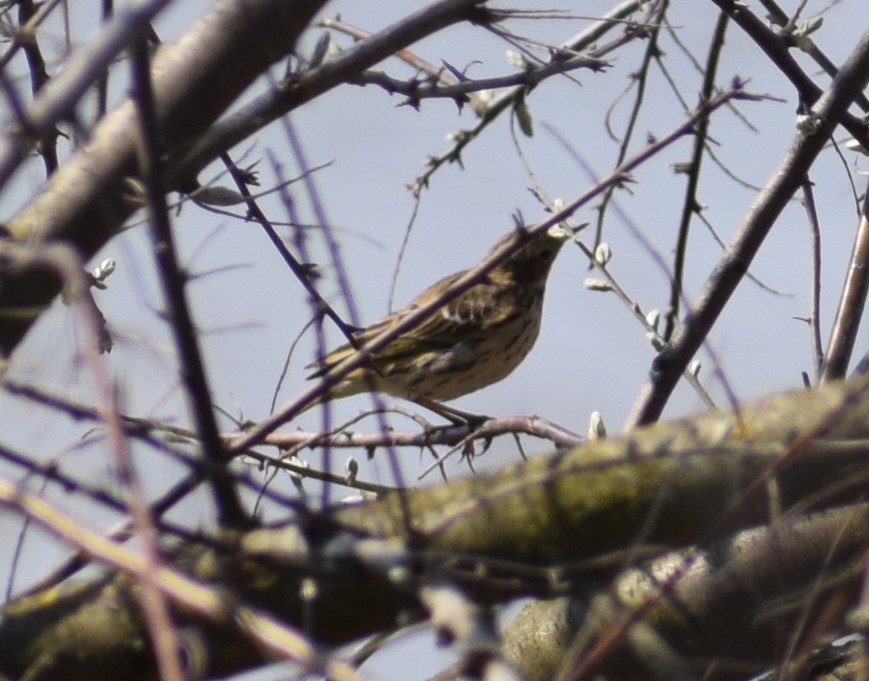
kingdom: Animalia
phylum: Chordata
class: Aves
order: Passeriformes
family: Motacillidae
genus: Anthus
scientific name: Anthus pratensis
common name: Meadow pipit
